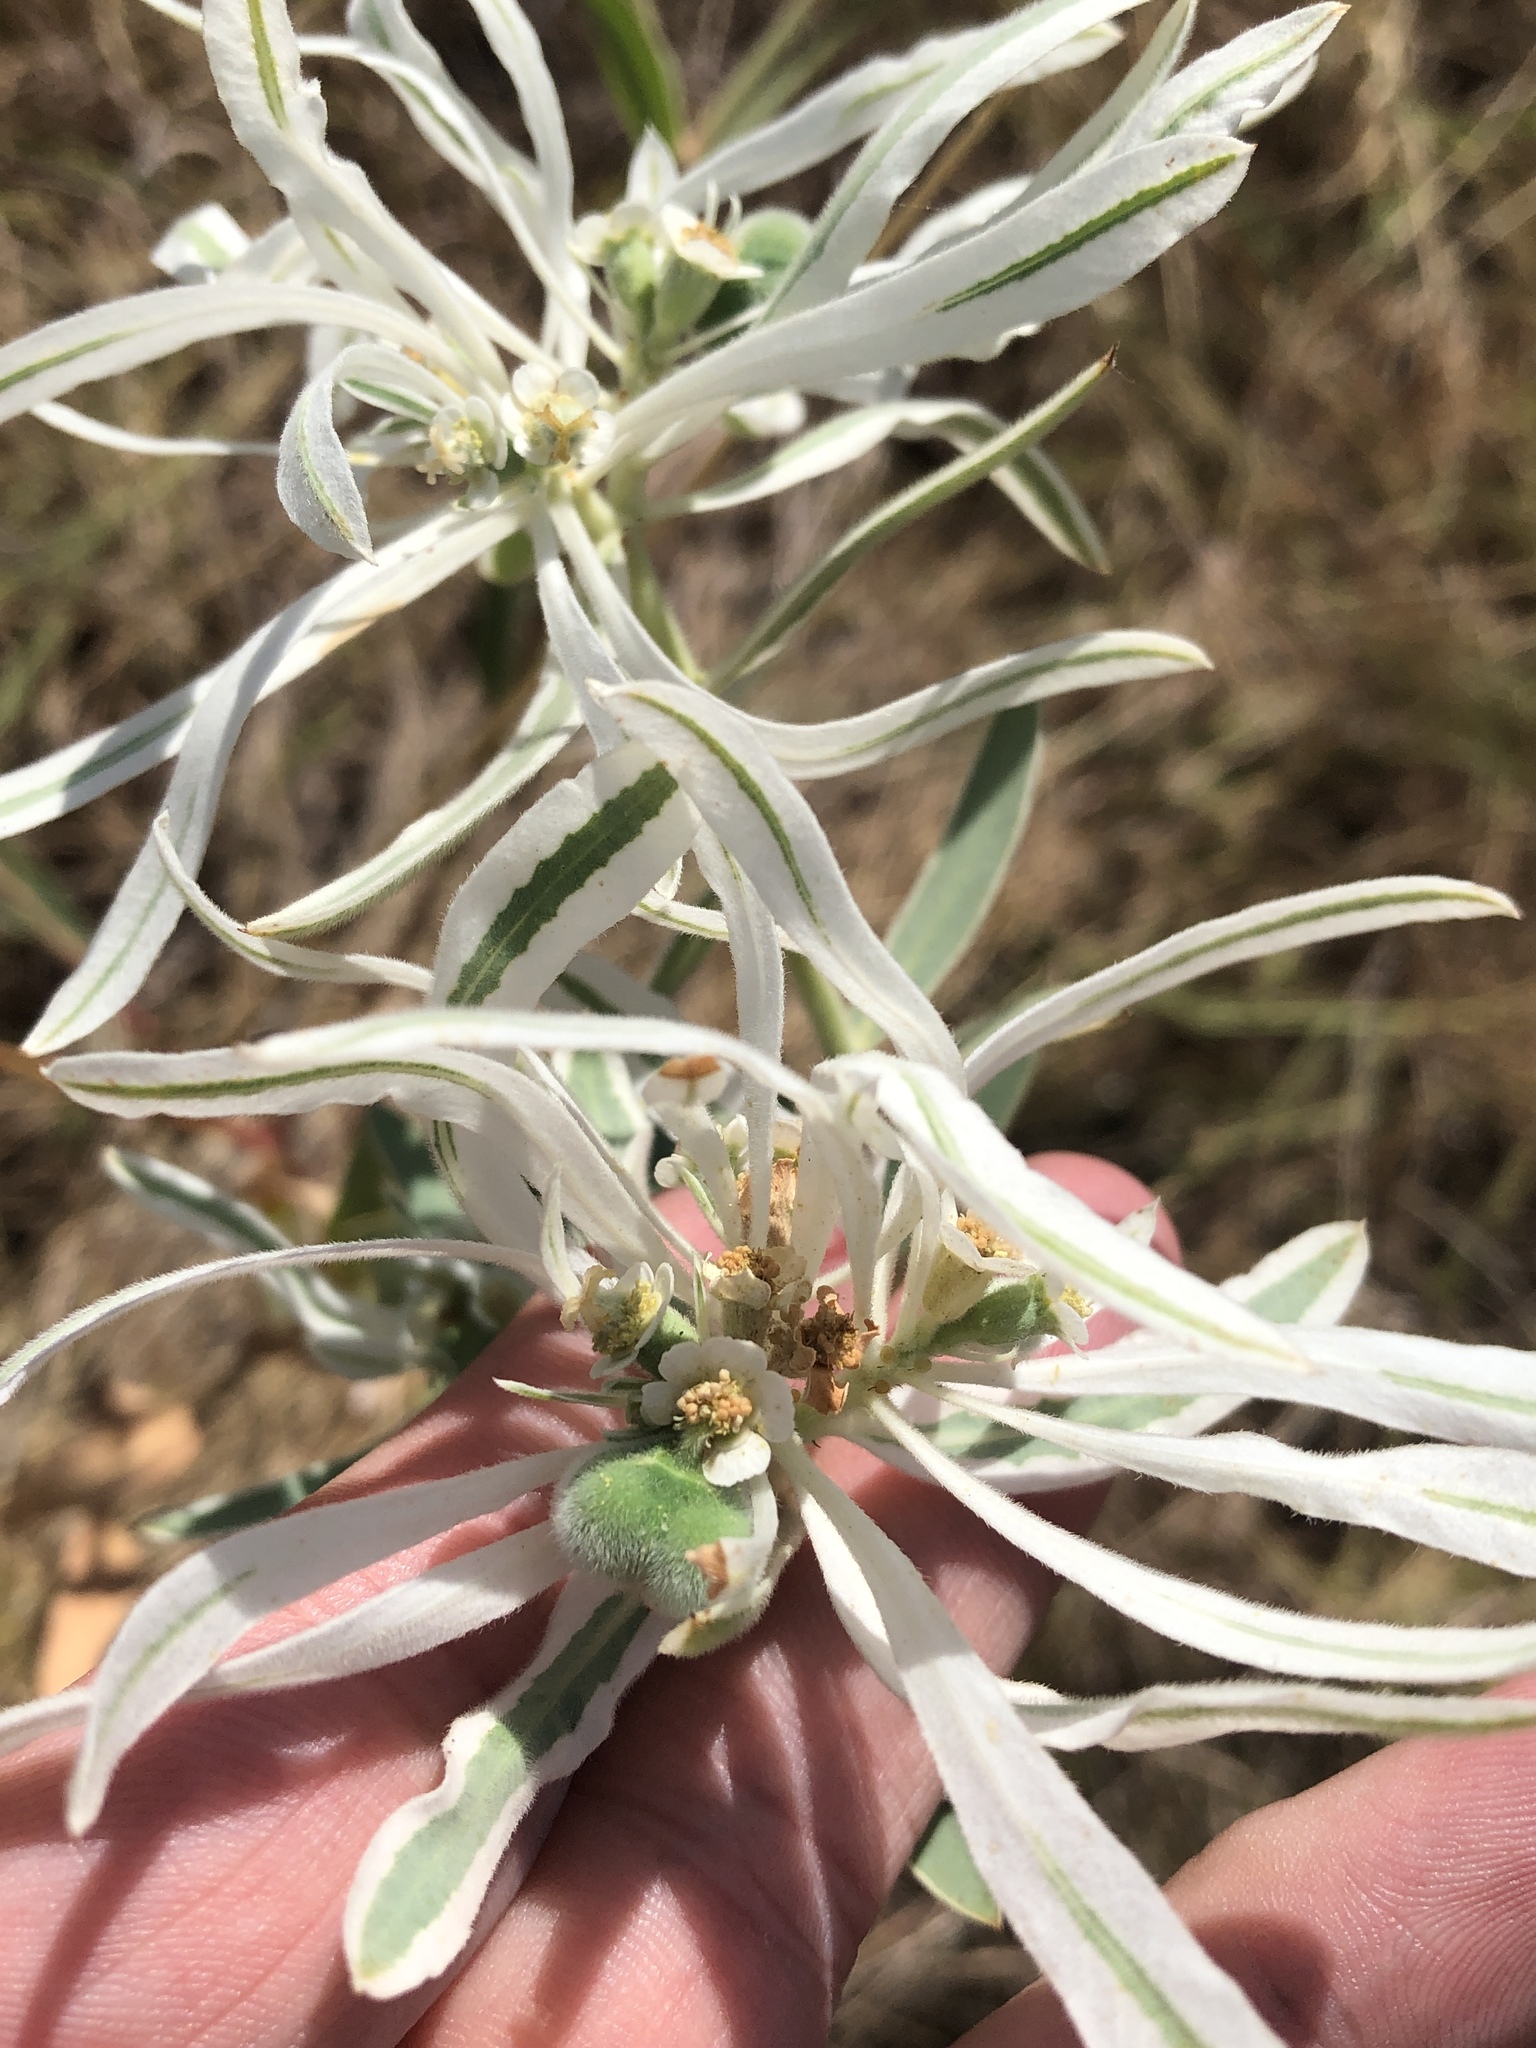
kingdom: Plantae
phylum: Tracheophyta
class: Magnoliopsida
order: Malpighiales
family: Euphorbiaceae
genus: Euphorbia
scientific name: Euphorbia bicolor
